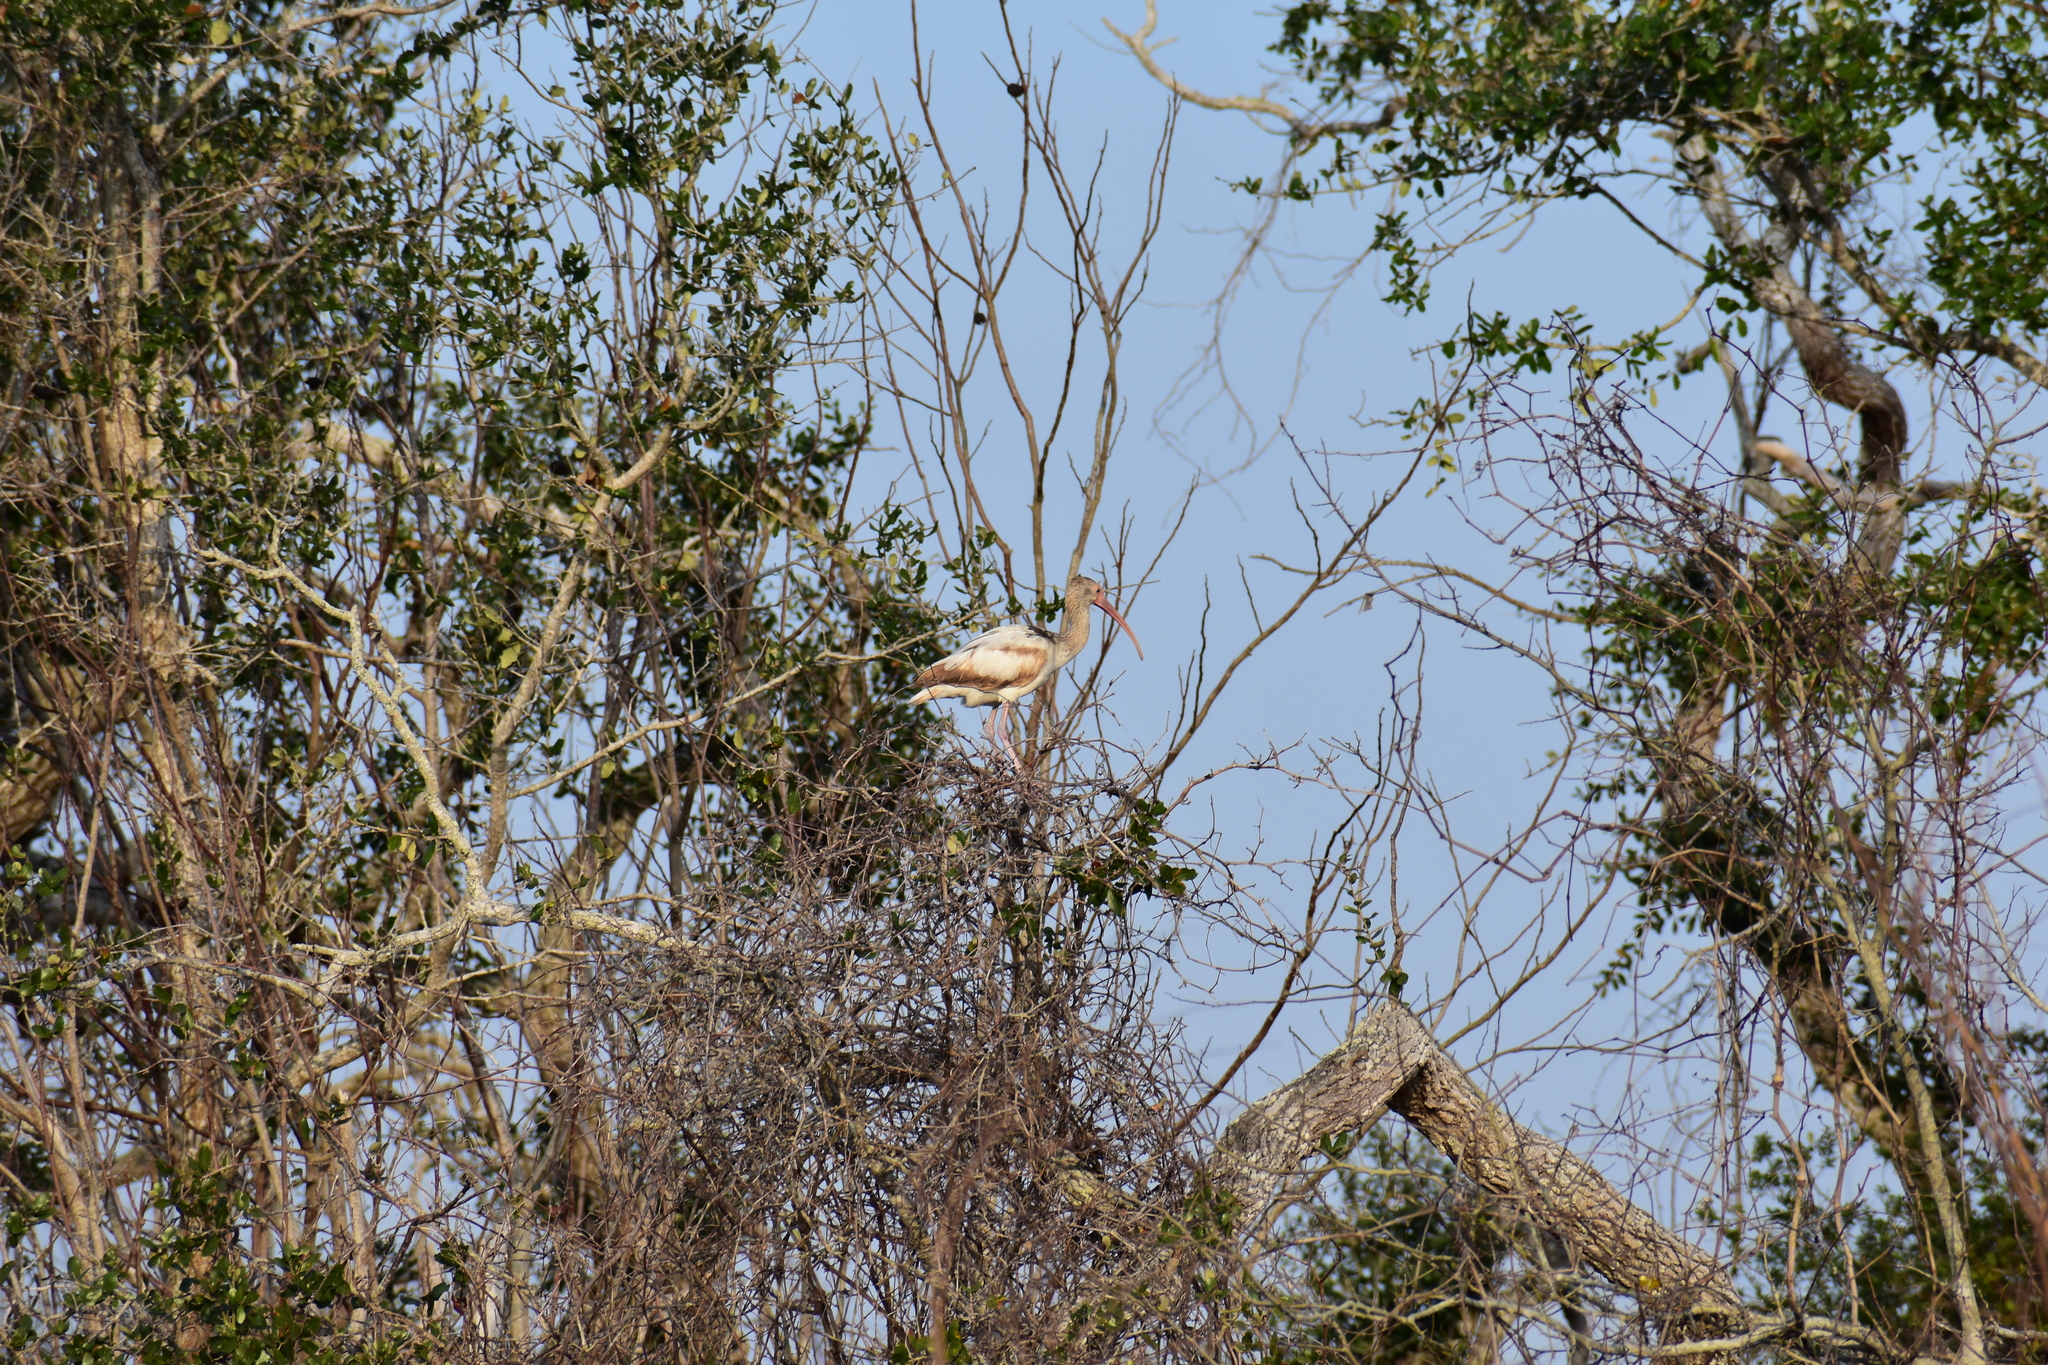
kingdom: Animalia
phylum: Chordata
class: Aves
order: Pelecaniformes
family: Threskiornithidae
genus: Eudocimus
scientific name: Eudocimus albus
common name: White ibis
